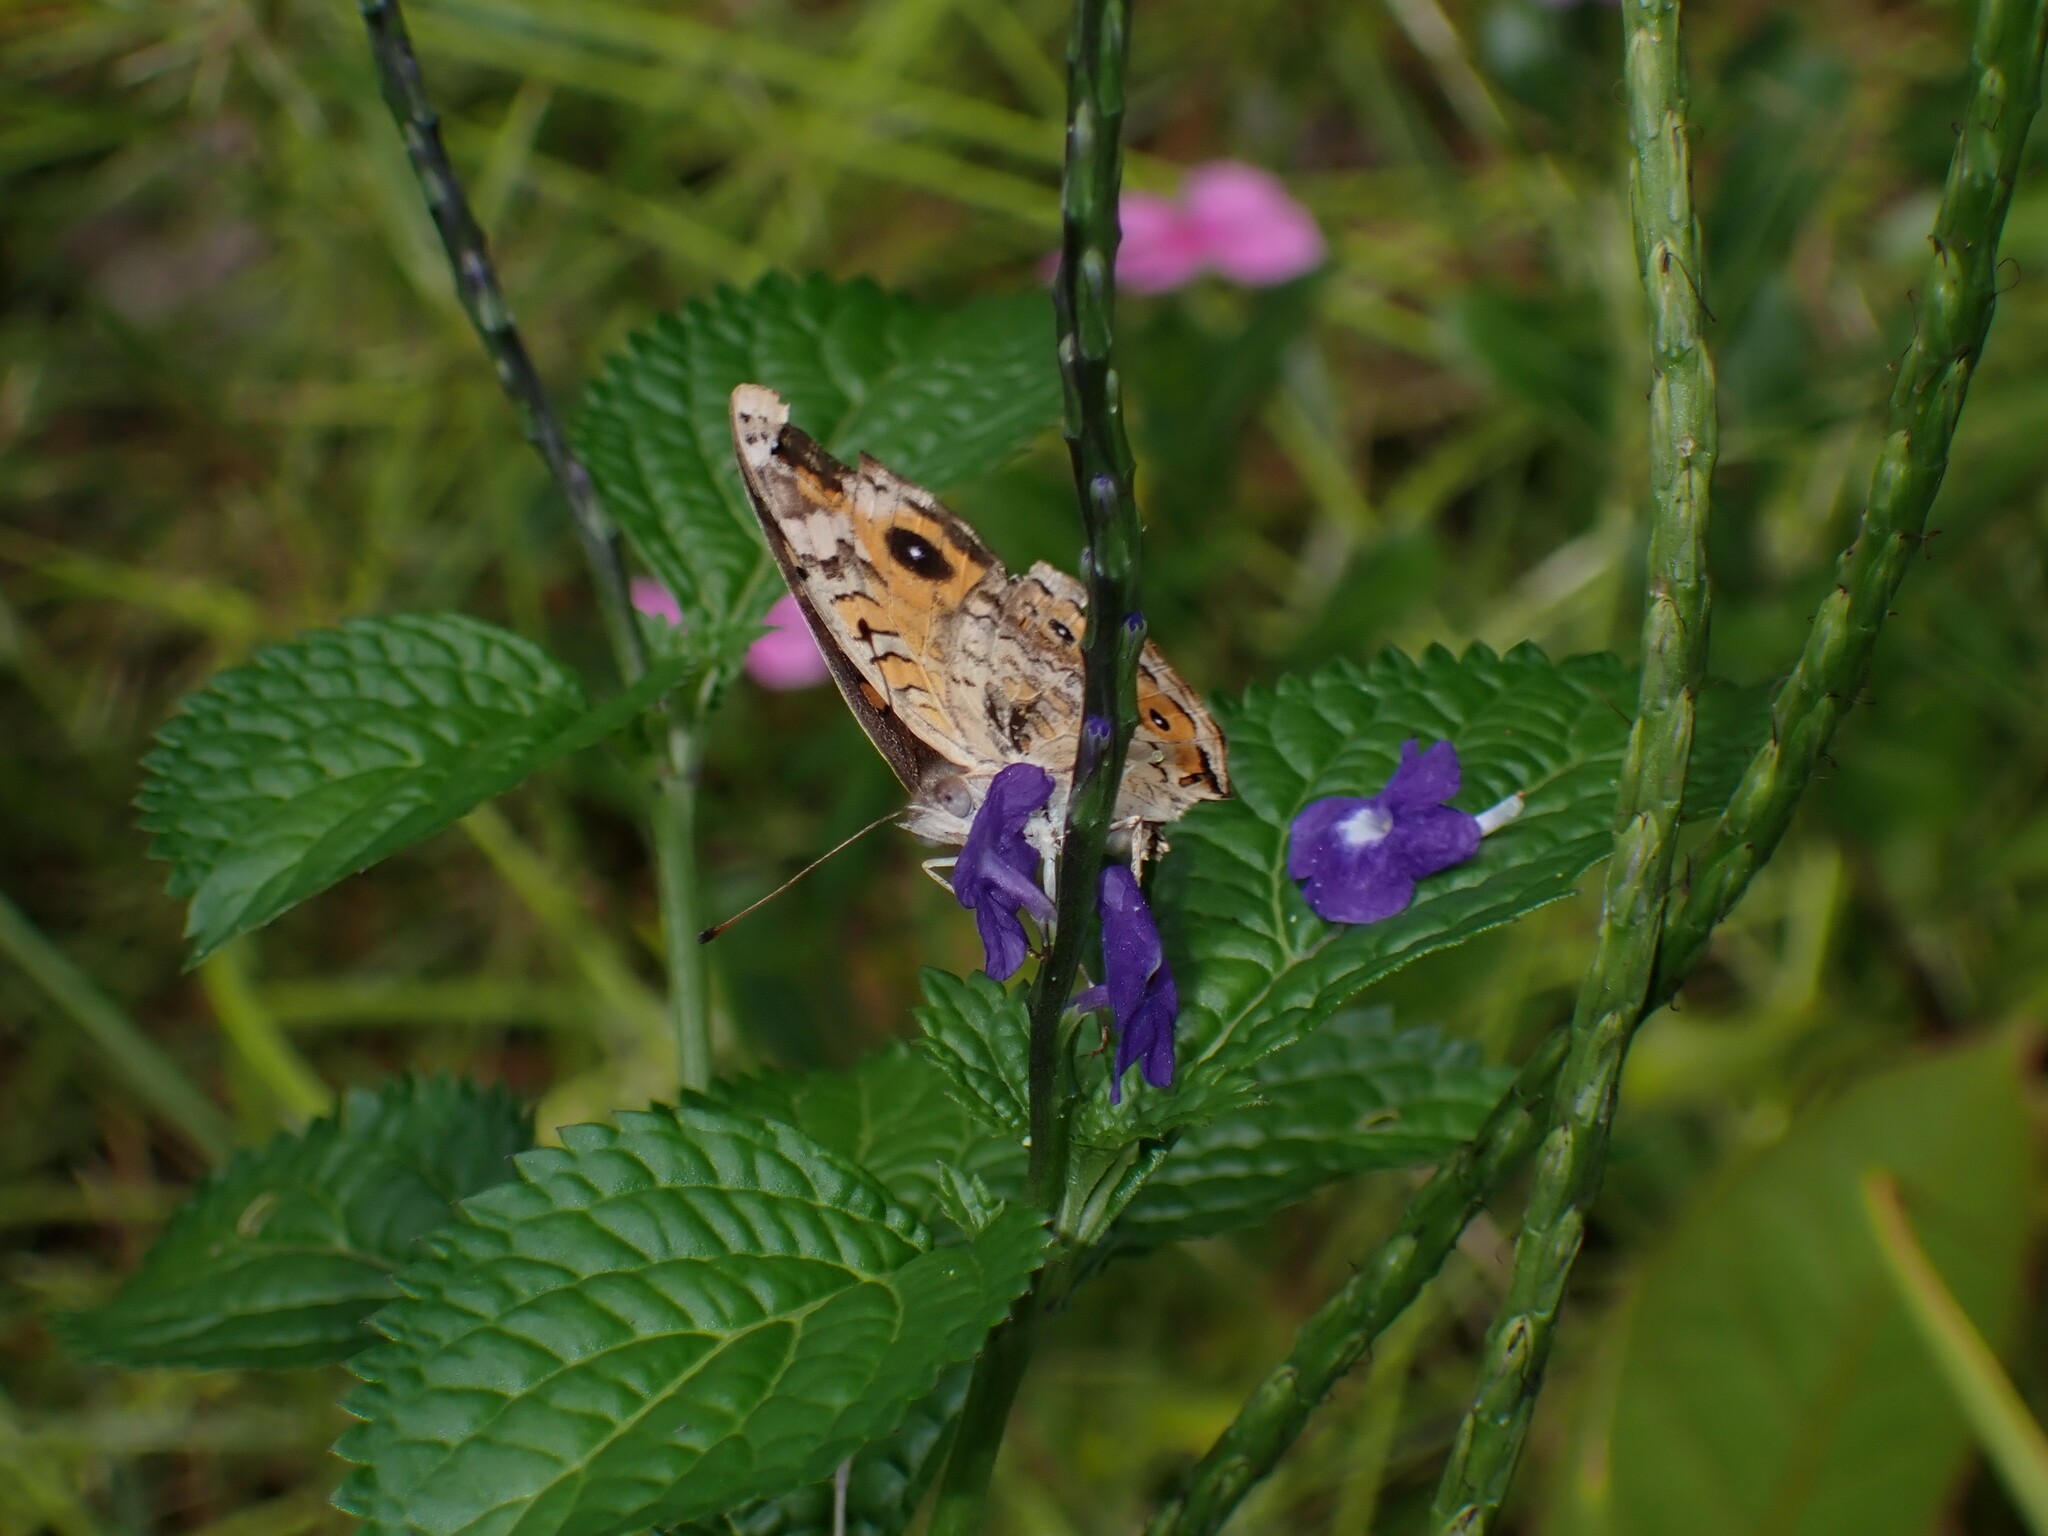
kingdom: Animalia
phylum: Arthropoda
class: Insecta
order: Lepidoptera
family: Nymphalidae
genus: Junonia
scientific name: Junonia villida
